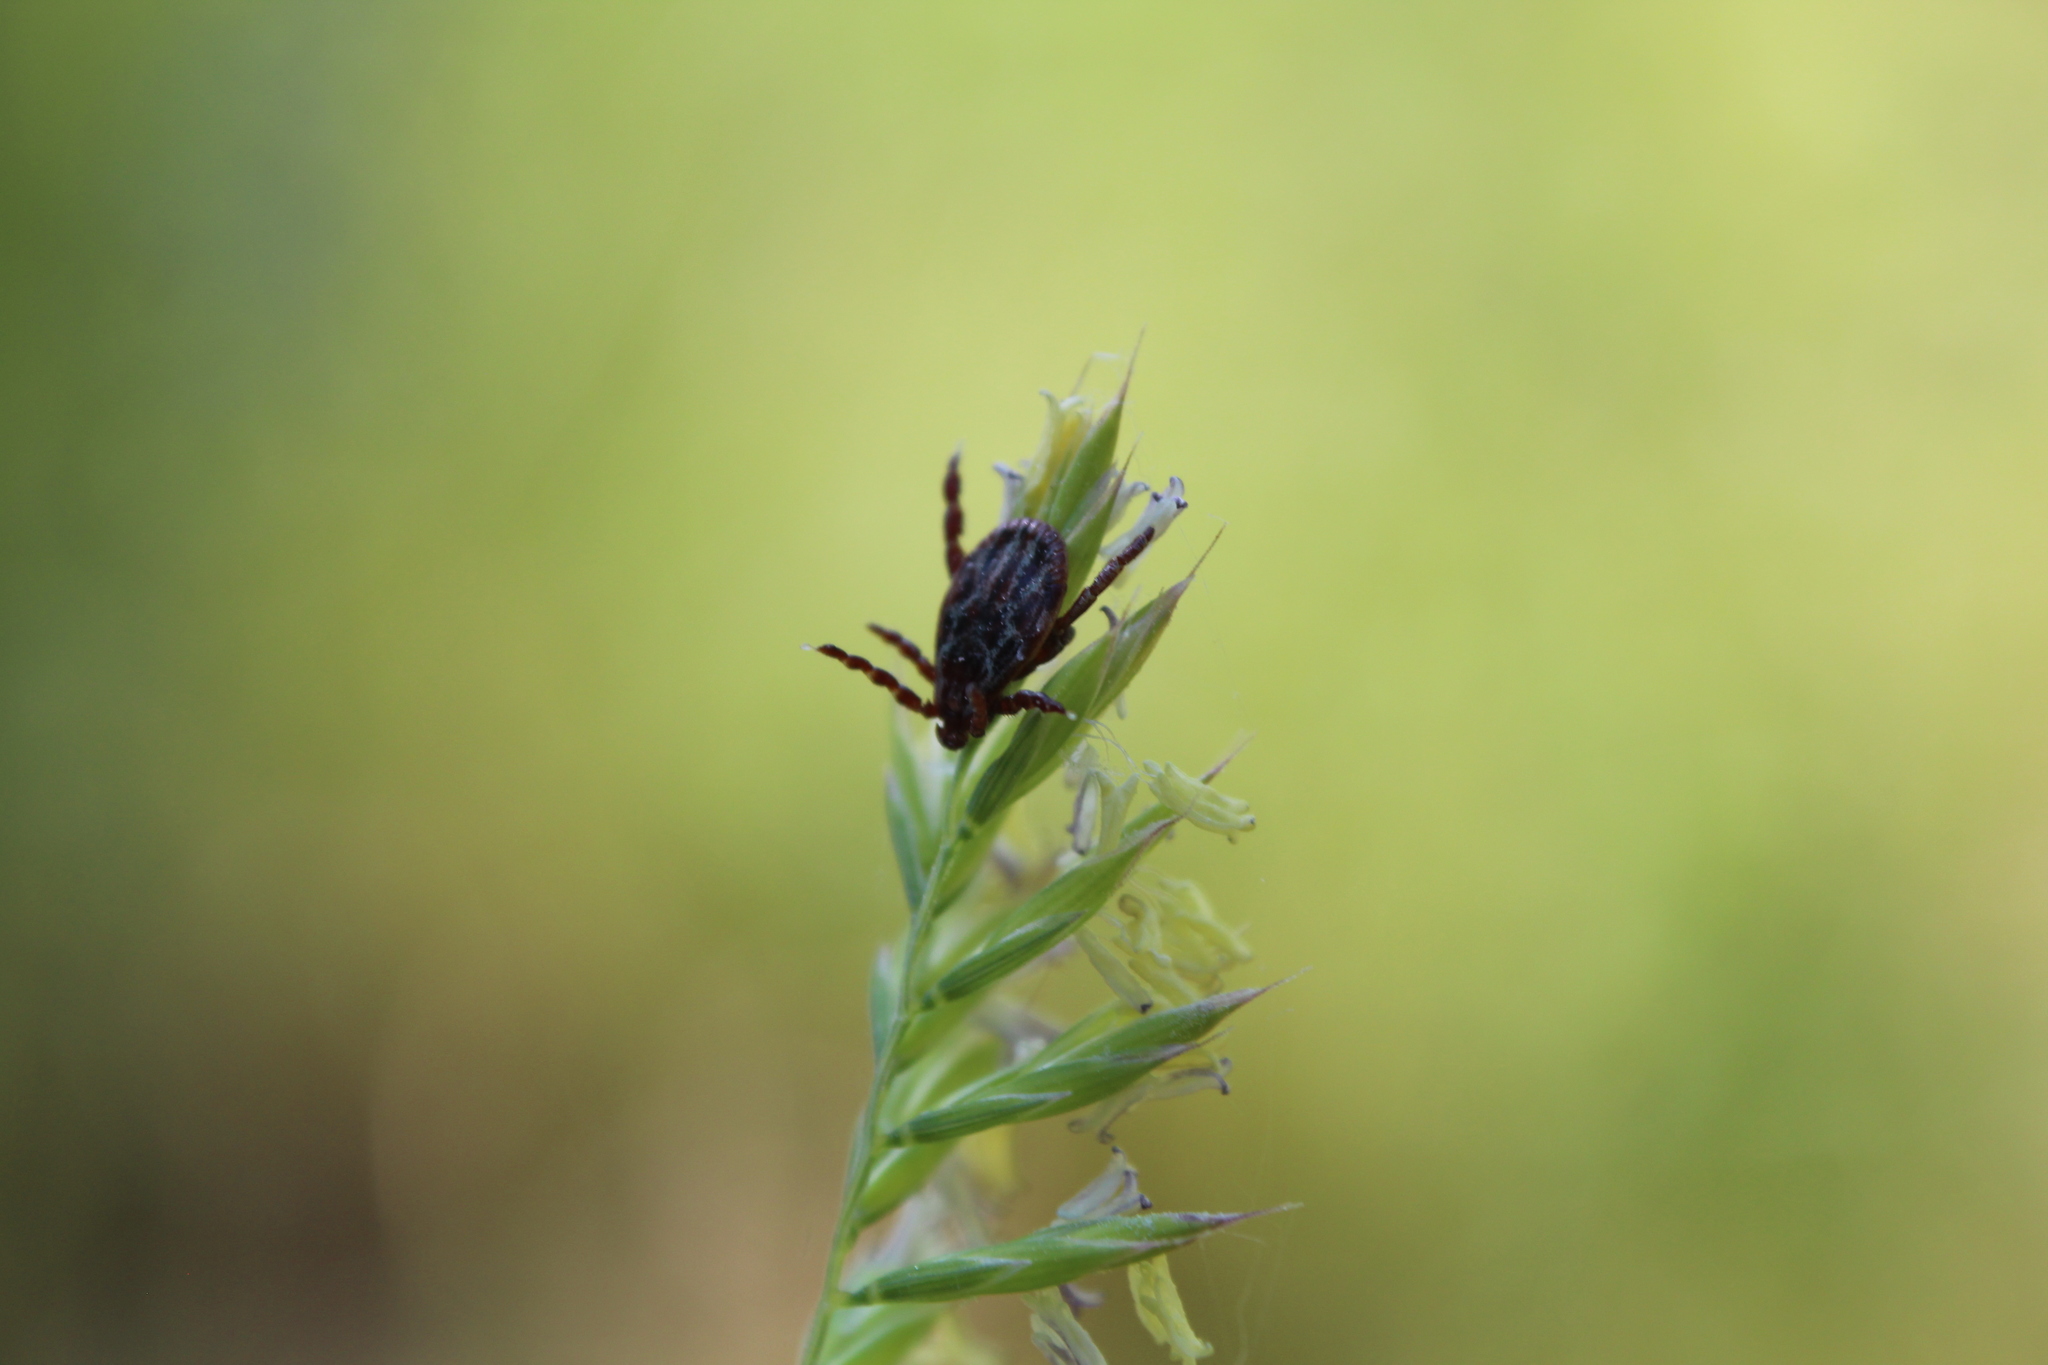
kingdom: Animalia
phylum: Arthropoda
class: Arachnida
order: Ixodida
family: Ixodidae
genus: Dermacentor
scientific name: Dermacentor reticulatus
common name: Ornate cow tick
